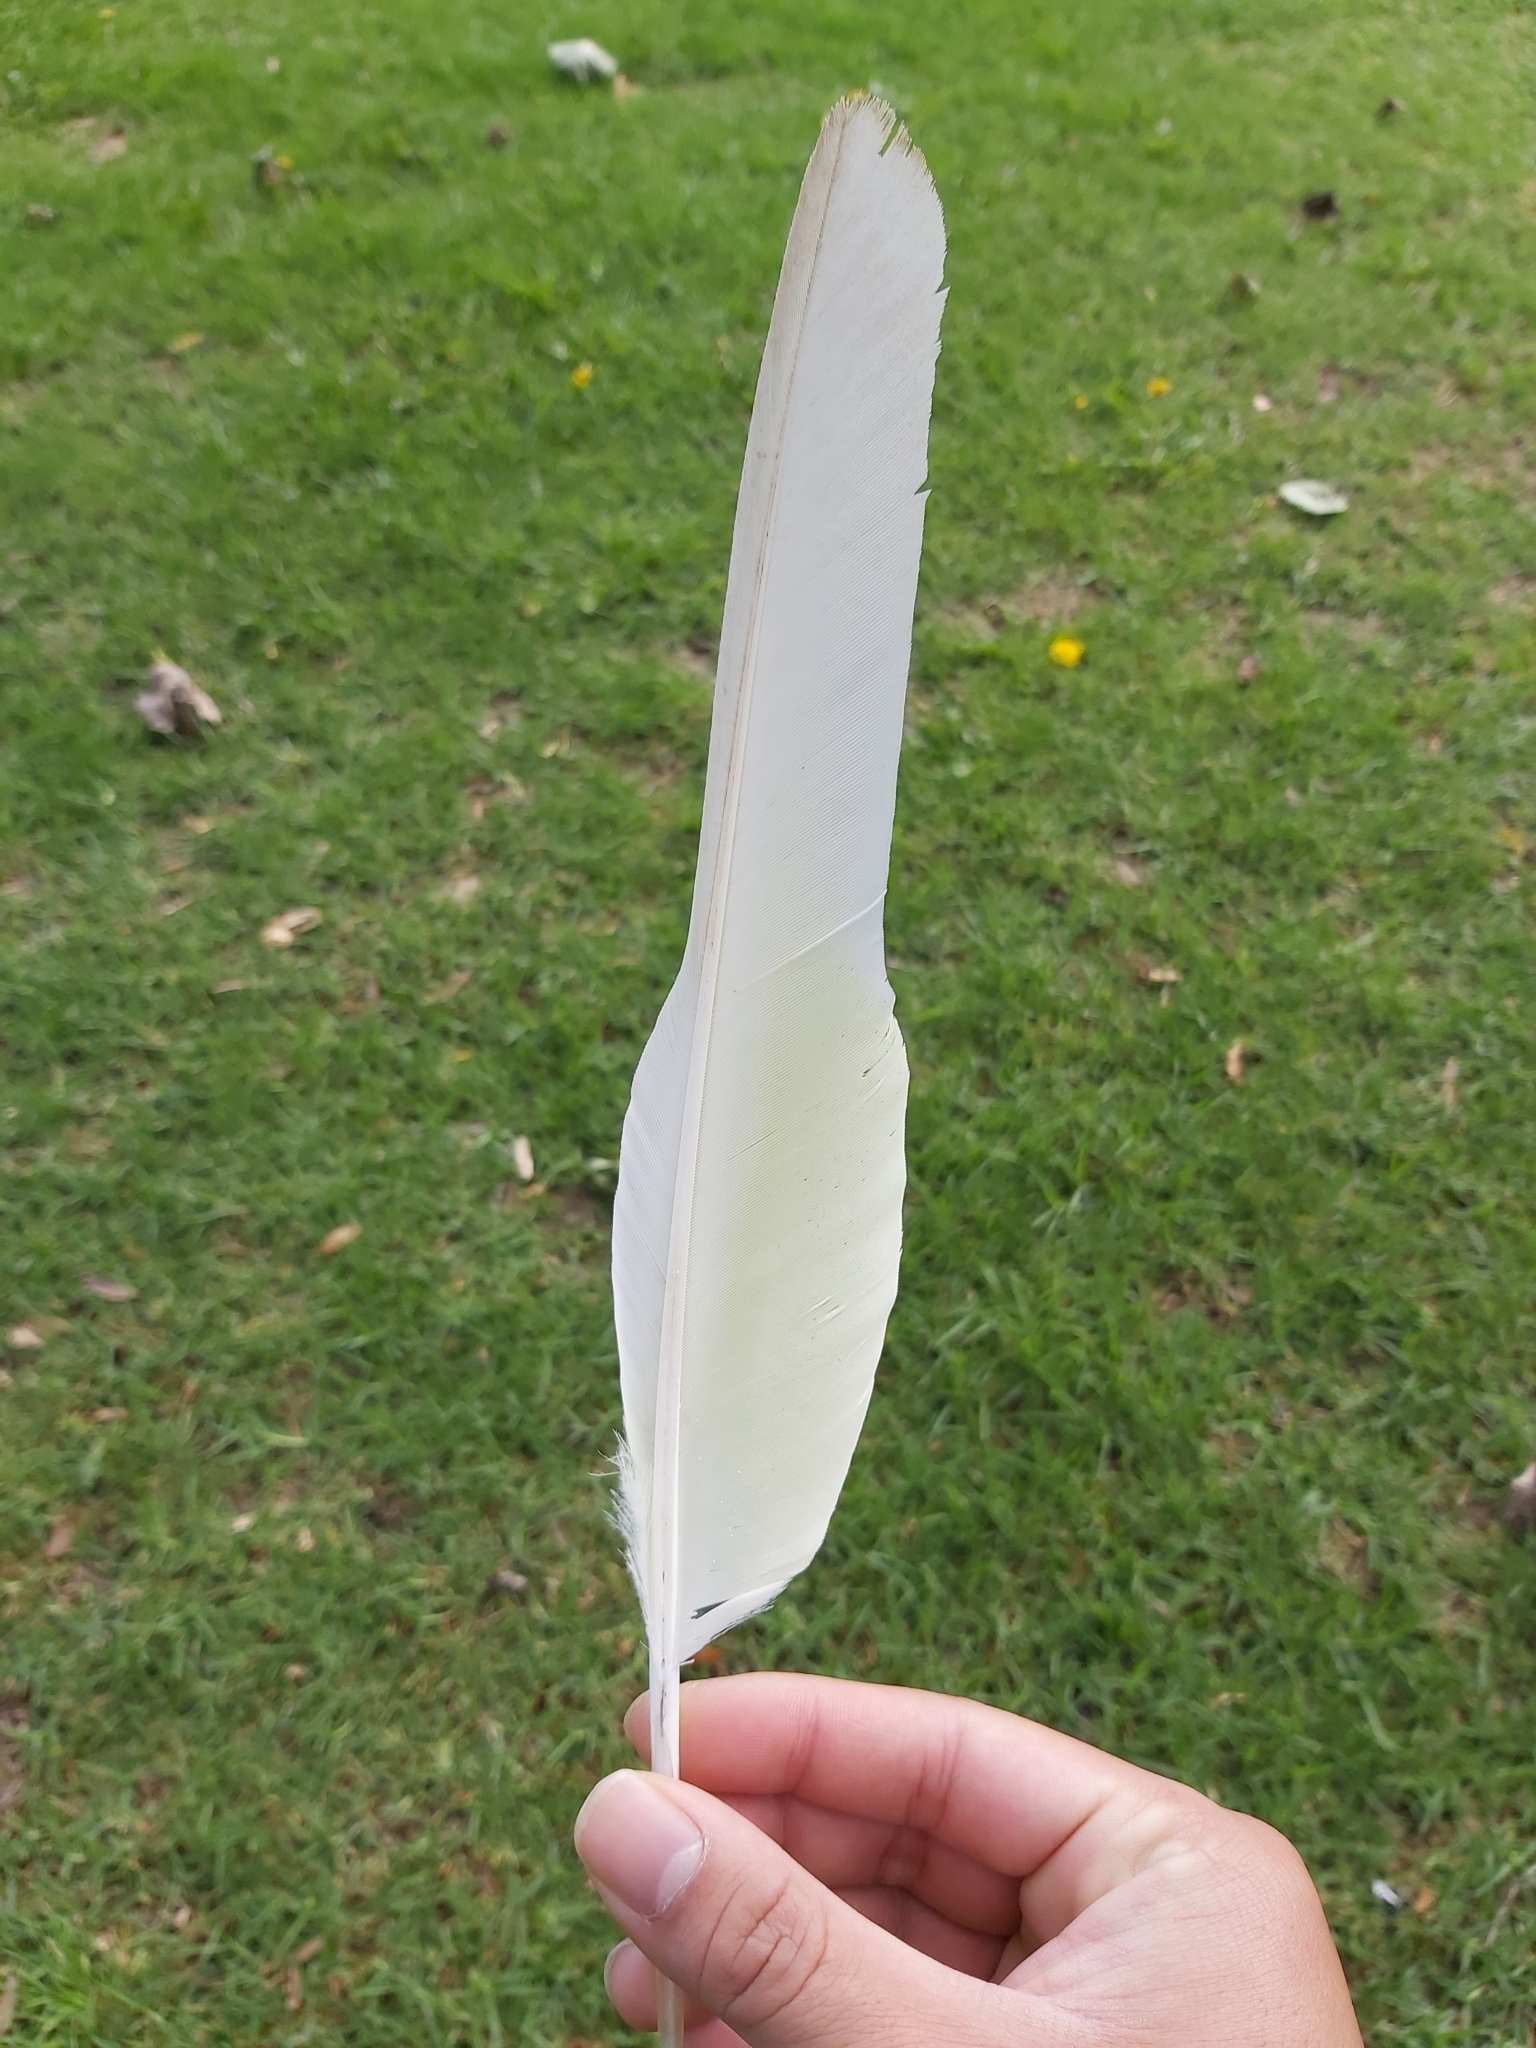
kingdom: Animalia
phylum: Chordata
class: Aves
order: Psittaciformes
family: Psittacidae
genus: Cacatua
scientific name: Cacatua galerita
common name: Sulphur-crested cockatoo
